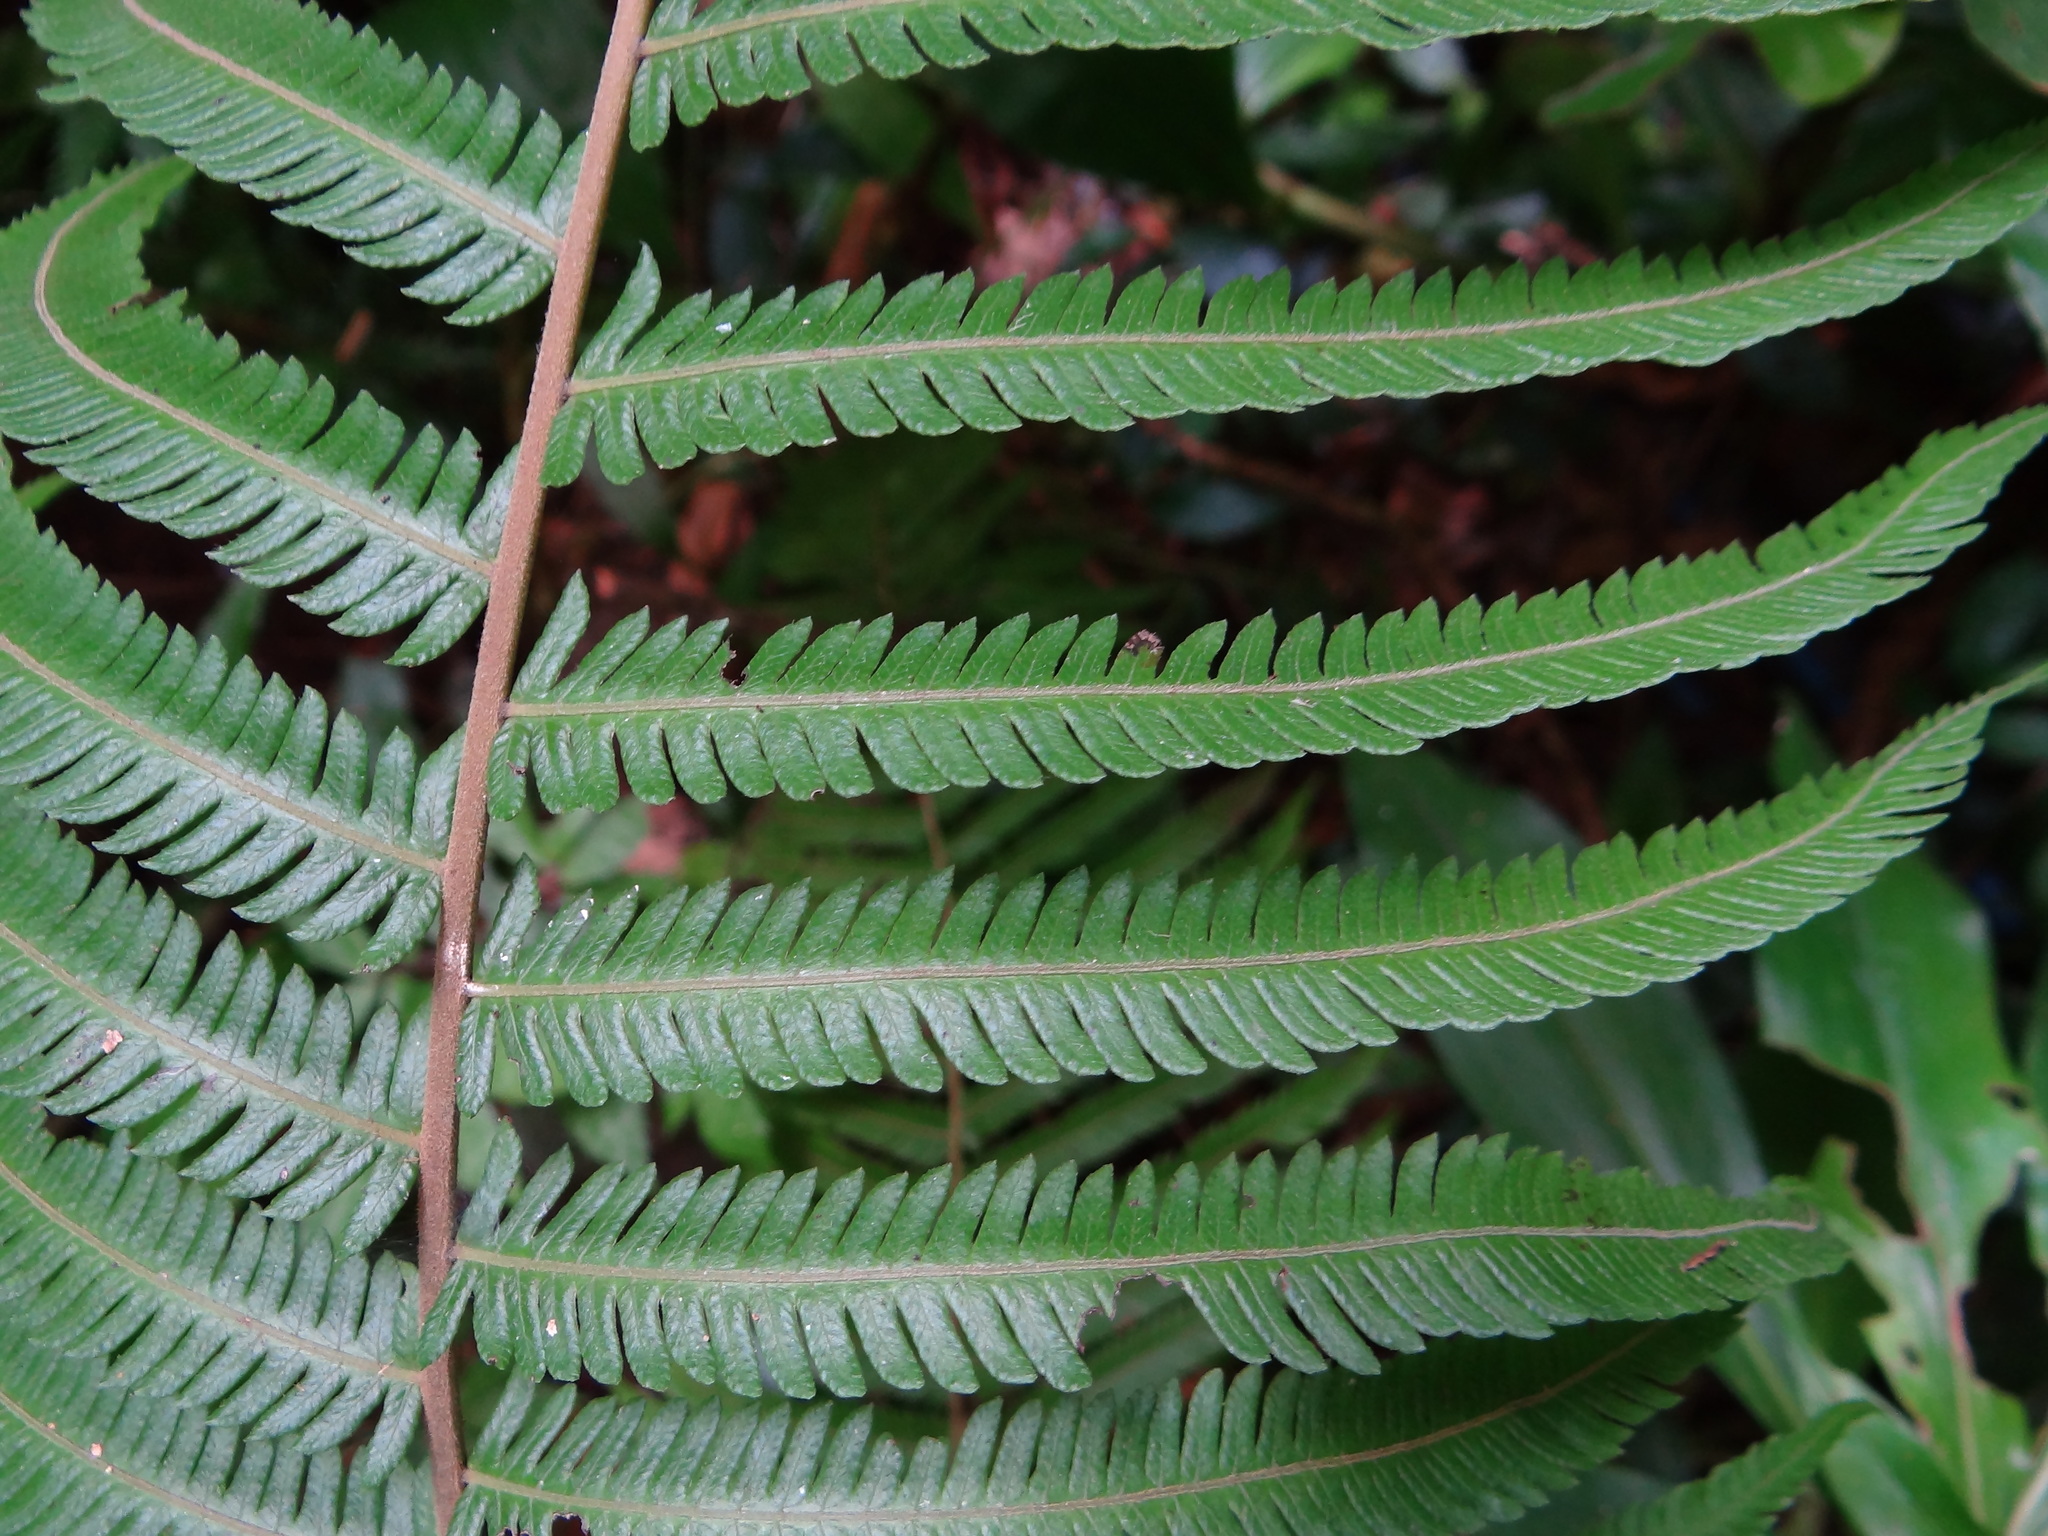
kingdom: Plantae
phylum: Tracheophyta
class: Polypodiopsida
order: Polypodiales
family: Thelypteridaceae
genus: Pseudocyclosorus
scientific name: Pseudocyclosorus esquirolii
